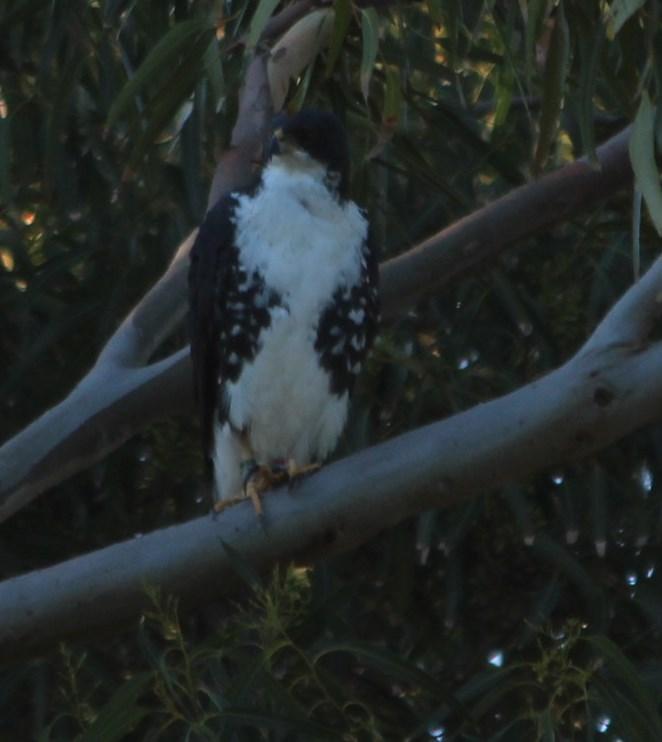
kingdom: Animalia
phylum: Chordata
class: Aves
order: Accipitriformes
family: Accipitridae
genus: Accipiter
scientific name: Accipiter melanoleucus
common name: Black sparrowhawk
